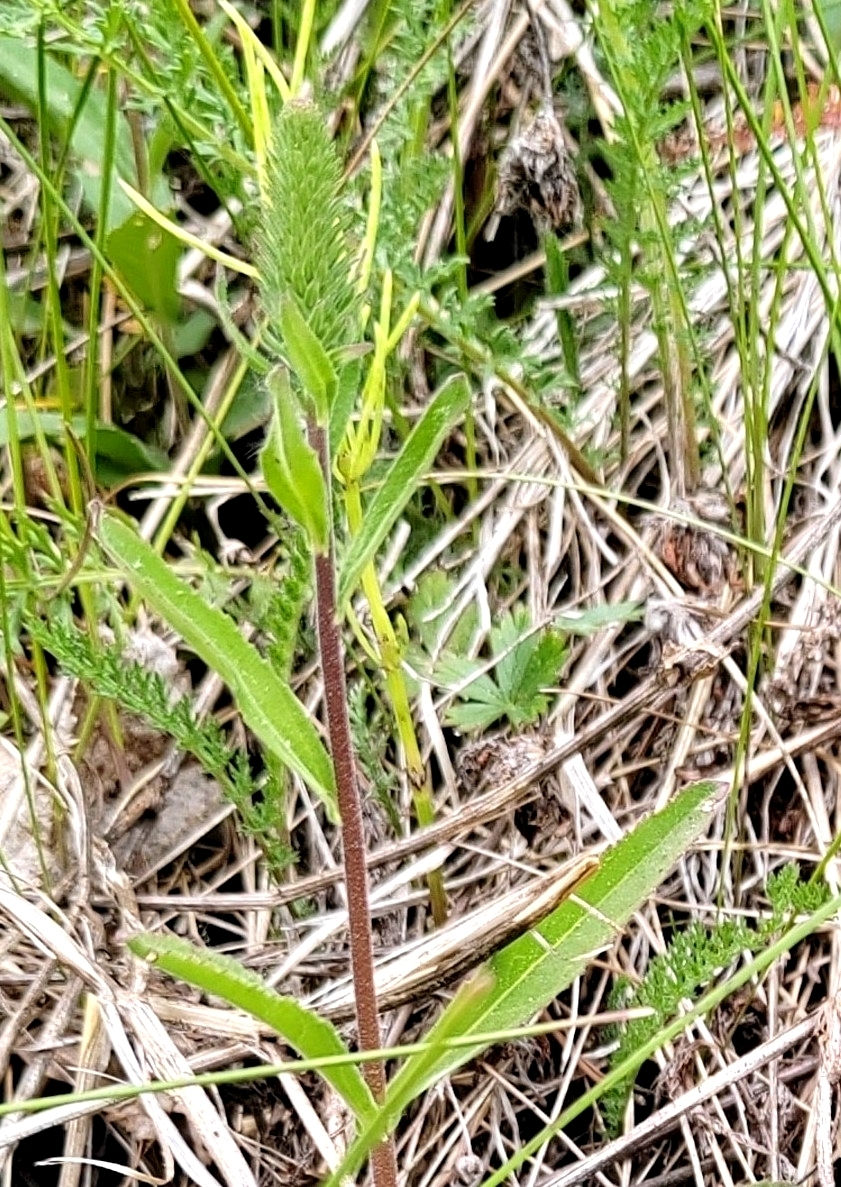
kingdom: Plantae
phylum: Tracheophyta
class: Magnoliopsida
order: Lamiales
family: Plantaginaceae
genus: Veronica
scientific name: Veronica spicata
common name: Spiked speedwell
